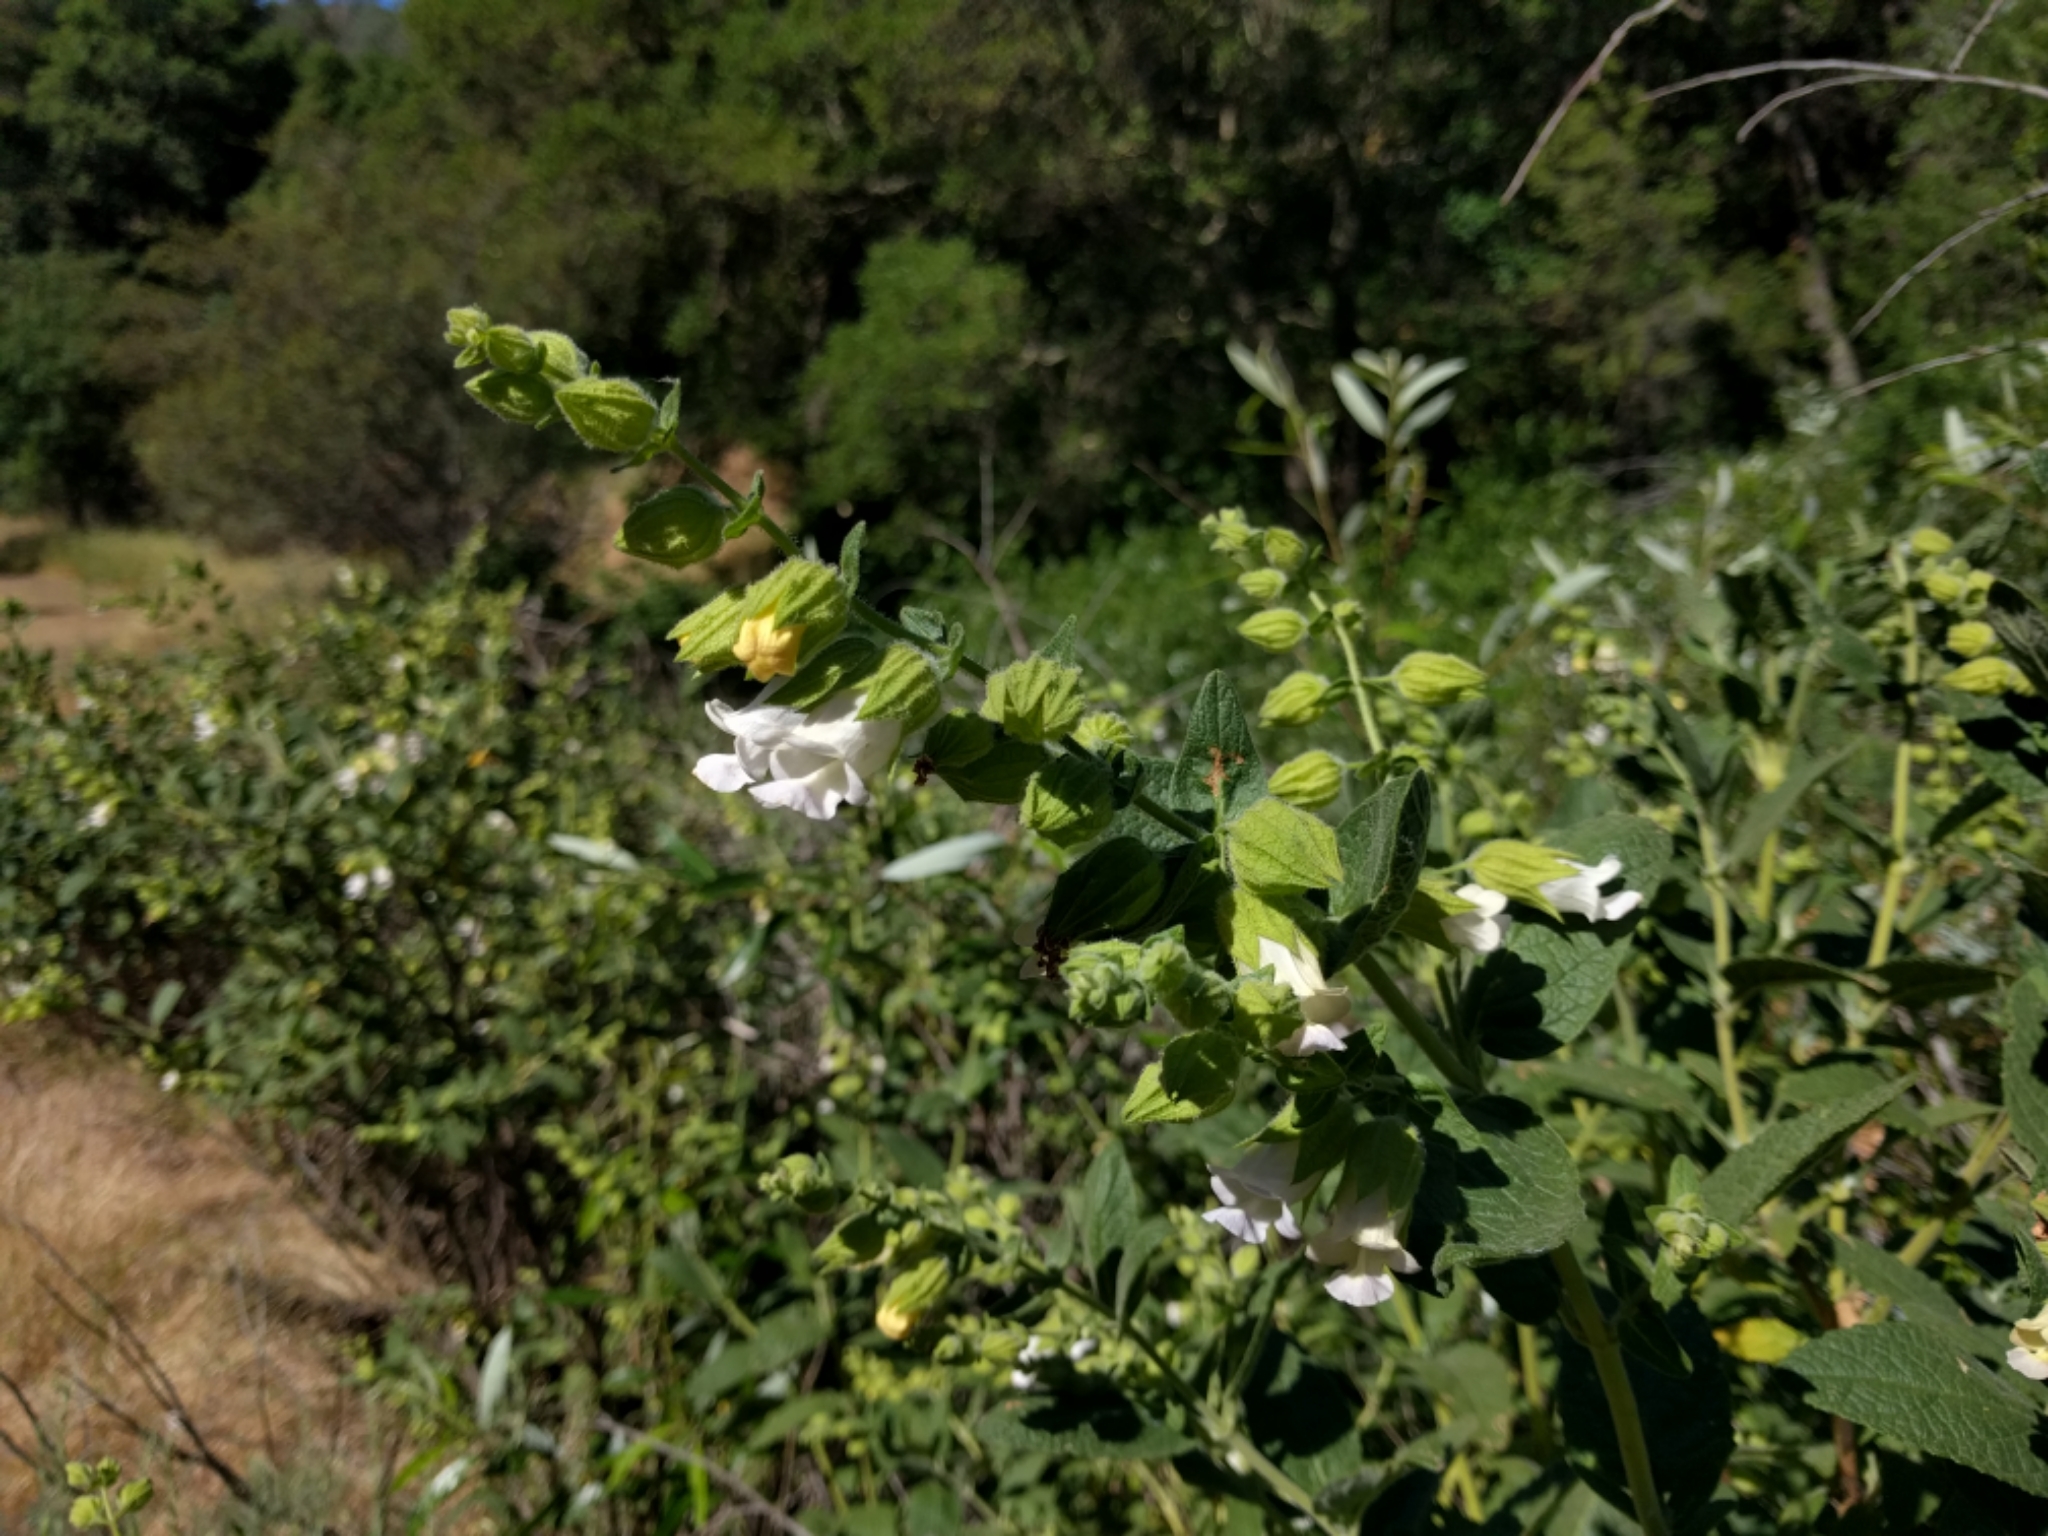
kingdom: Plantae
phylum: Tracheophyta
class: Magnoliopsida
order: Lamiales
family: Lamiaceae
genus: Lepechinia
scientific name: Lepechinia calycina
